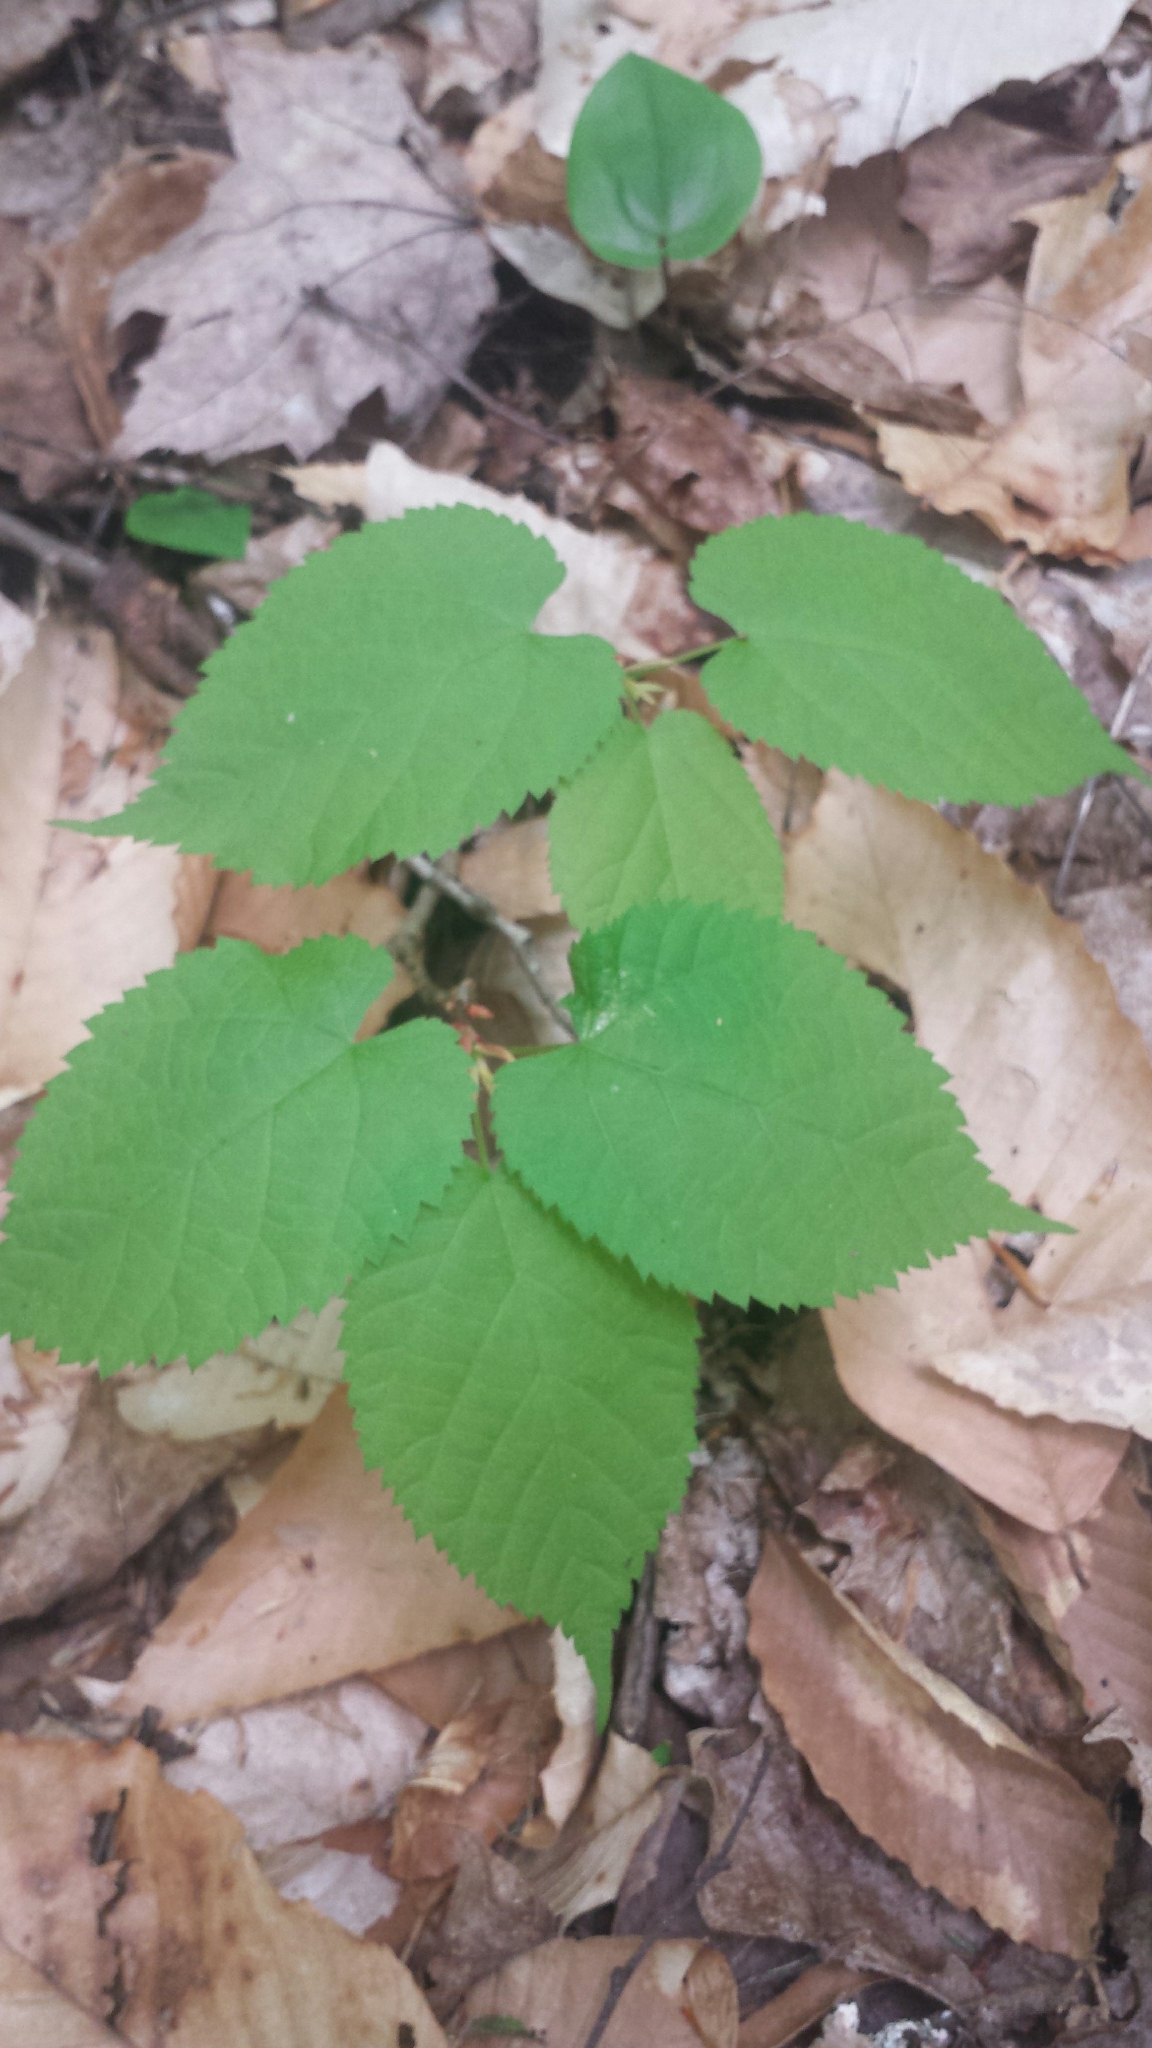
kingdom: Plantae
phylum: Tracheophyta
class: Magnoliopsida
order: Malvales
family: Malvaceae
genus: Tilia
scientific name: Tilia americana
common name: Basswood
